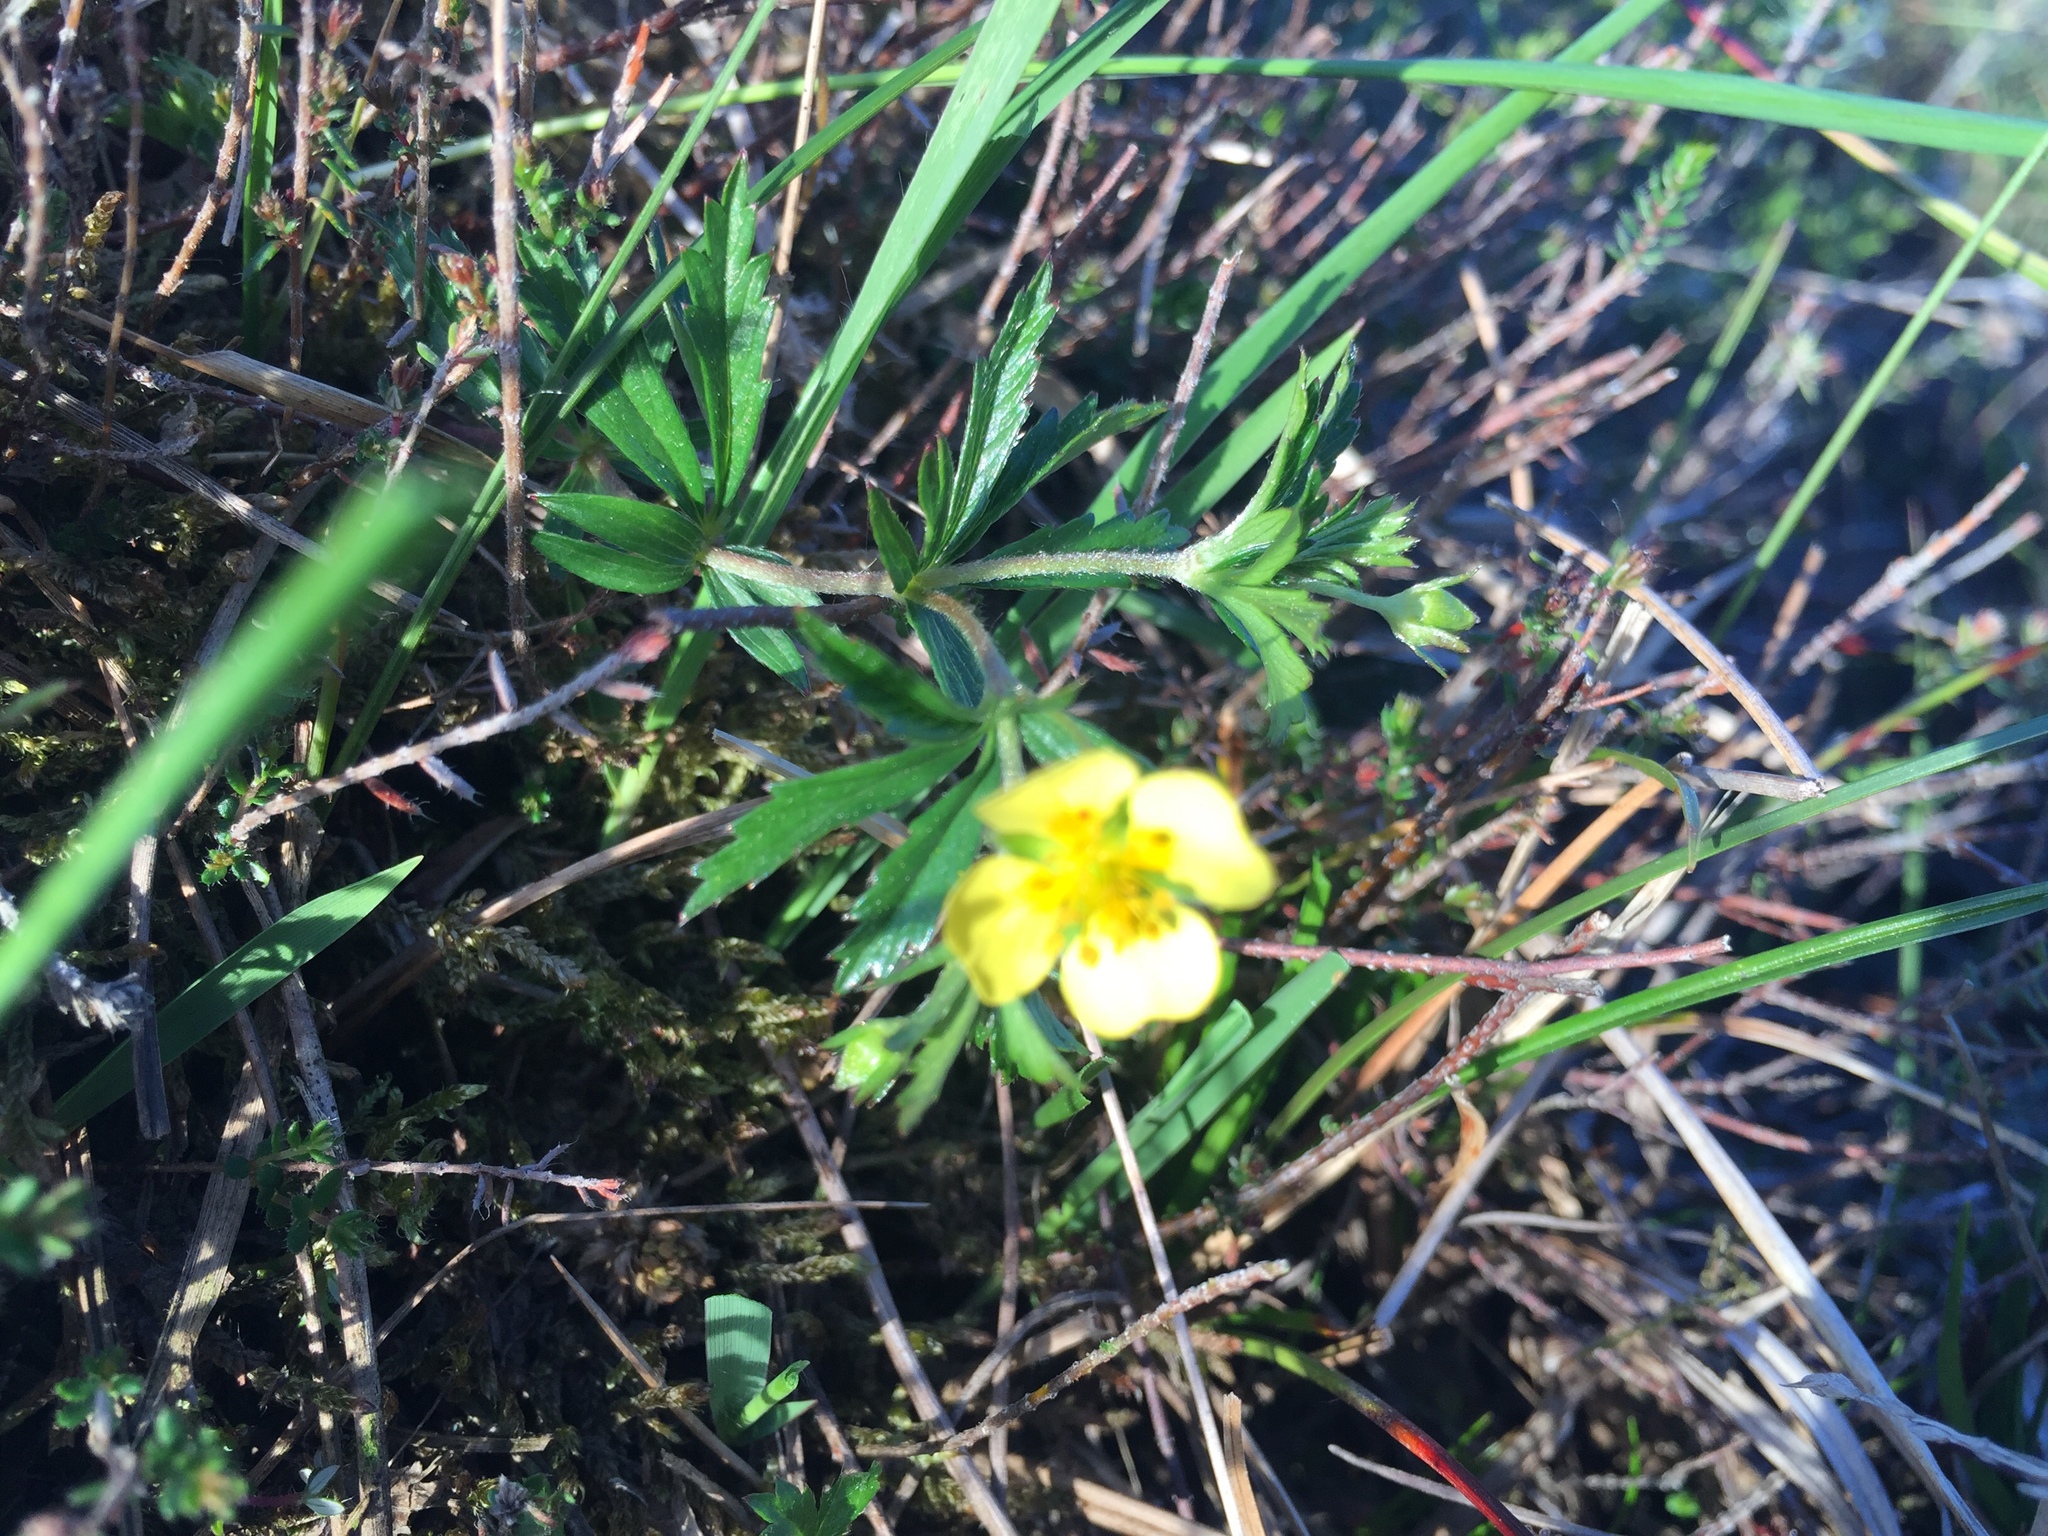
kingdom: Plantae
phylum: Tracheophyta
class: Magnoliopsida
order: Rosales
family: Rosaceae
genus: Potentilla
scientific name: Potentilla erecta
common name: Tormentil
